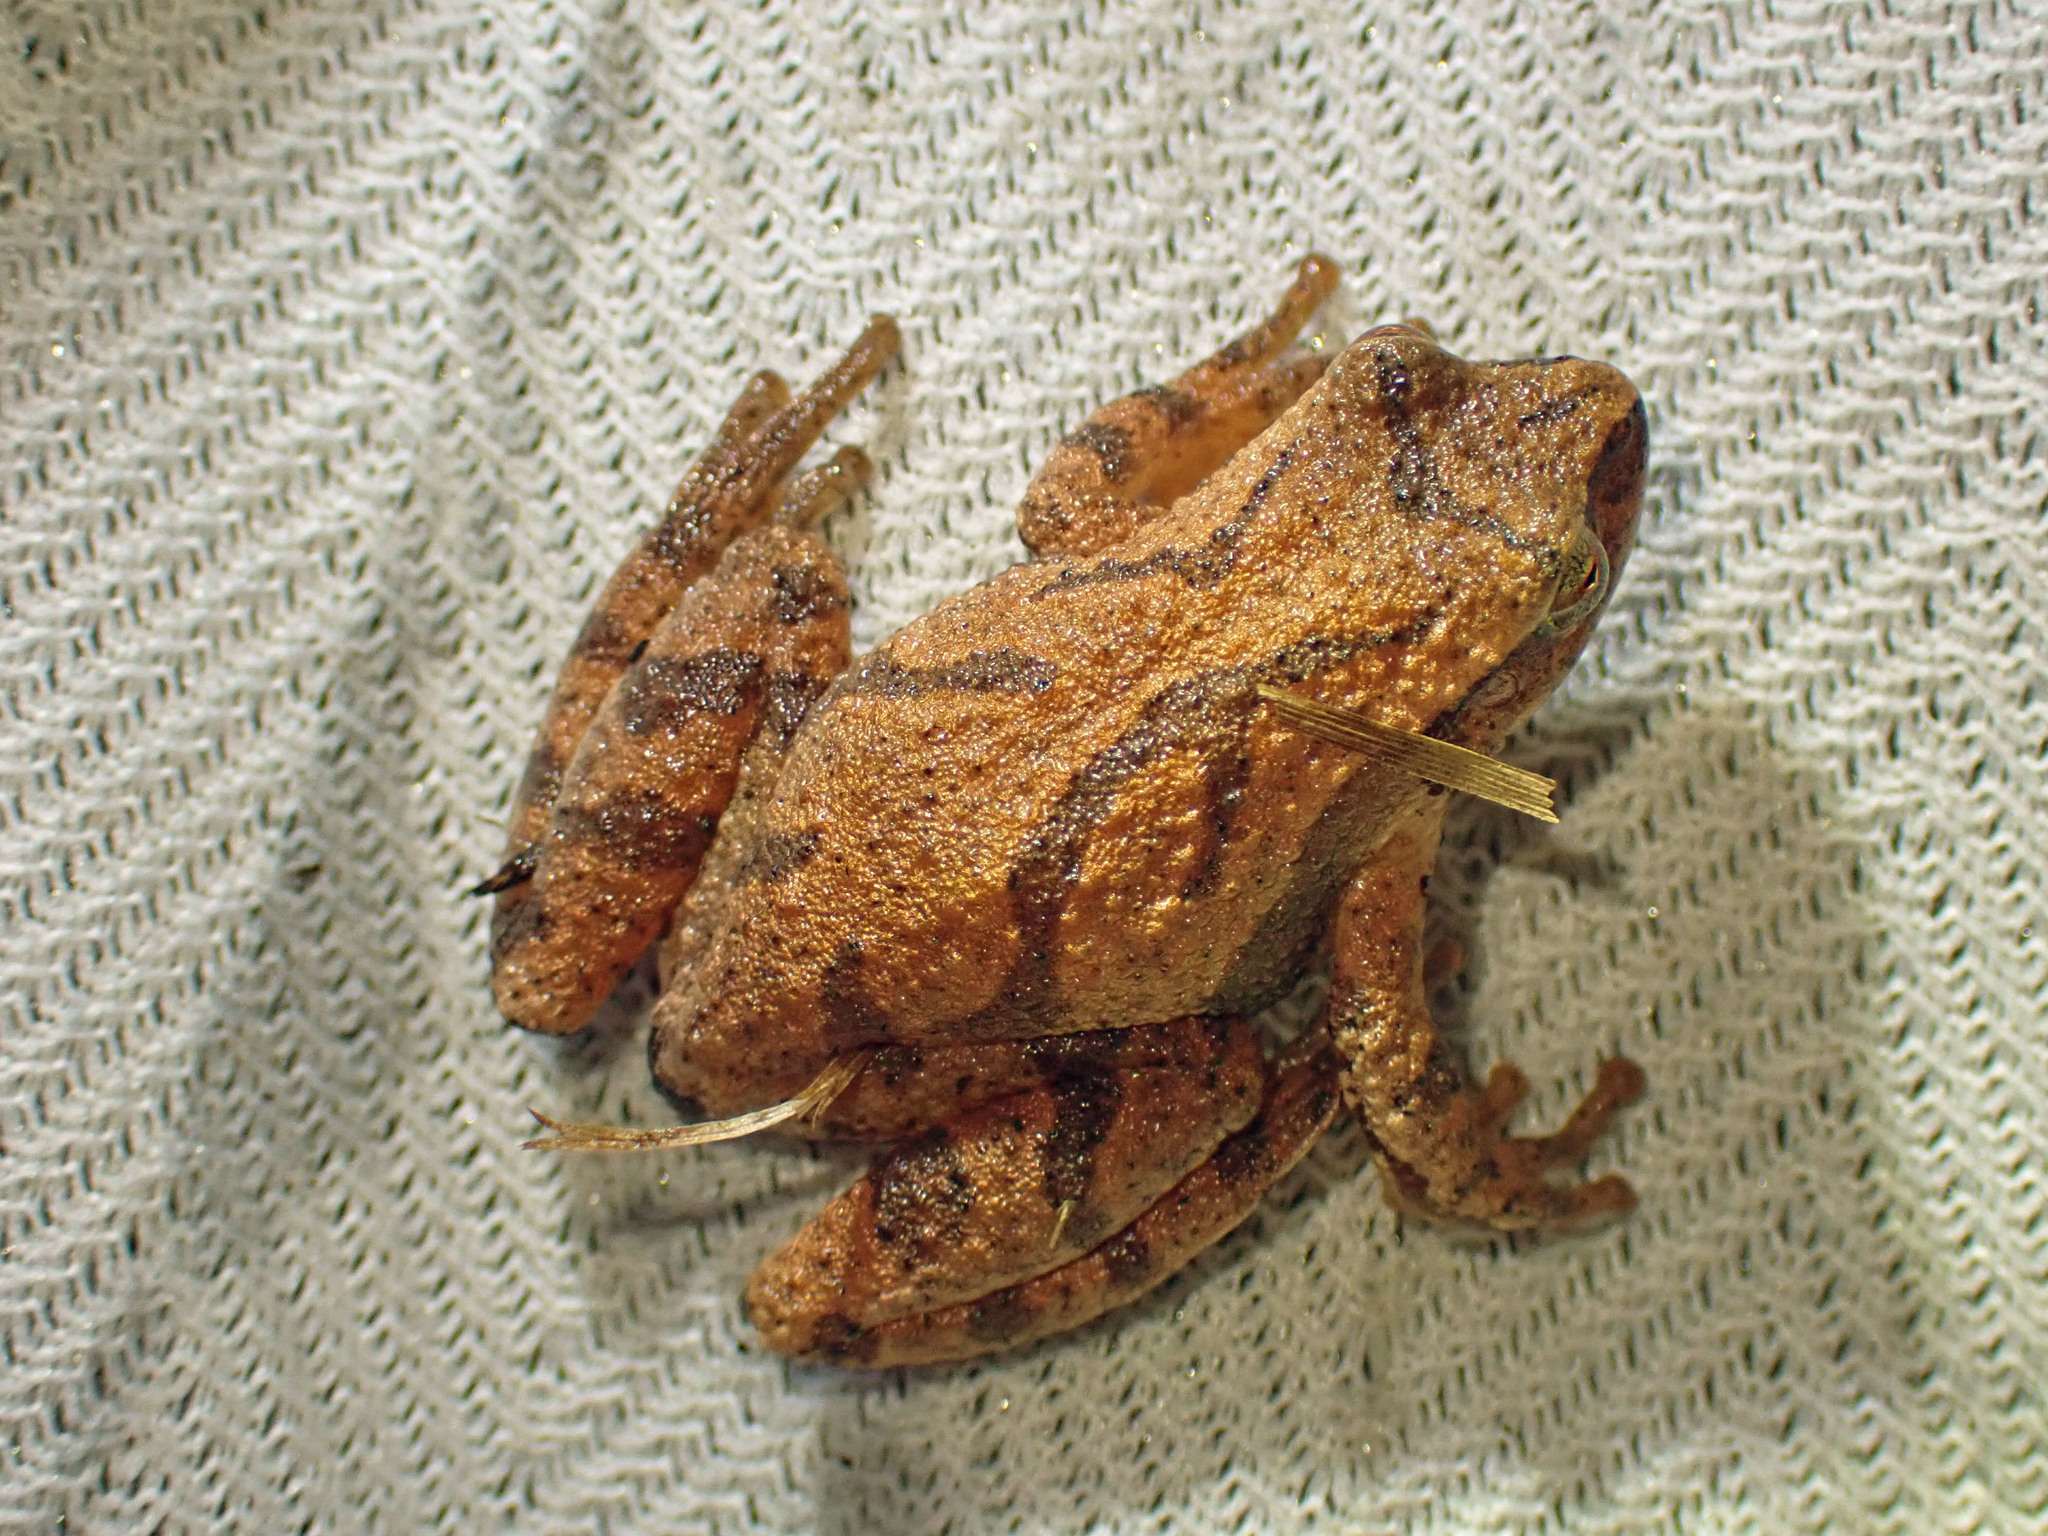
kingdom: Animalia
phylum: Chordata
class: Amphibia
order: Anura
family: Hylidae
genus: Pseudacris
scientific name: Pseudacris crucifer
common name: Spring peeper
